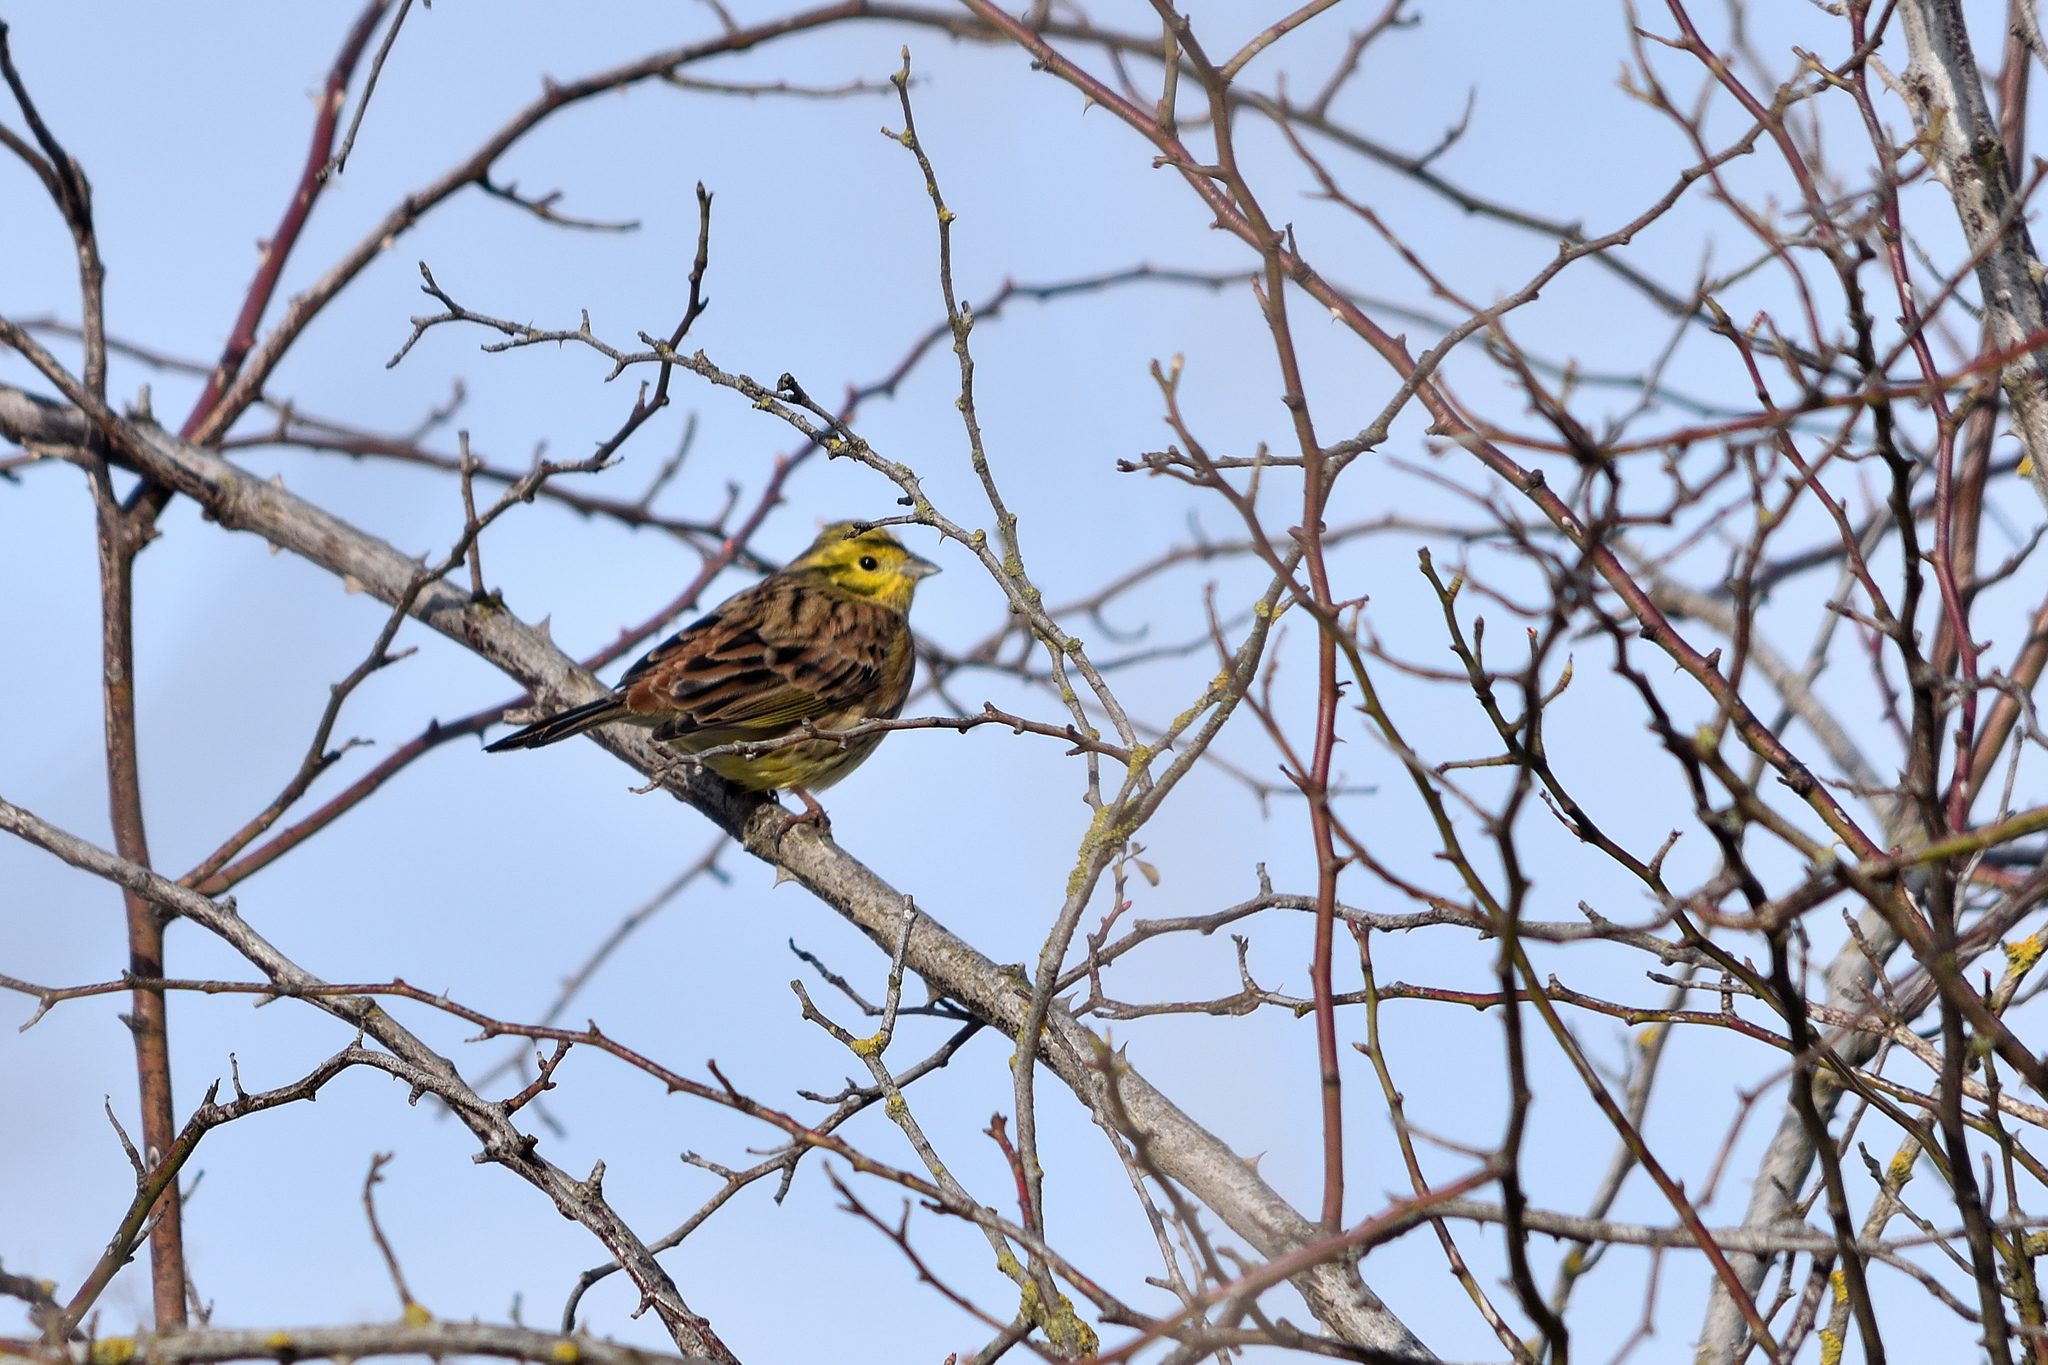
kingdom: Animalia
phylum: Chordata
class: Aves
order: Passeriformes
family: Emberizidae
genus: Emberiza
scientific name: Emberiza citrinella
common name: Yellowhammer
